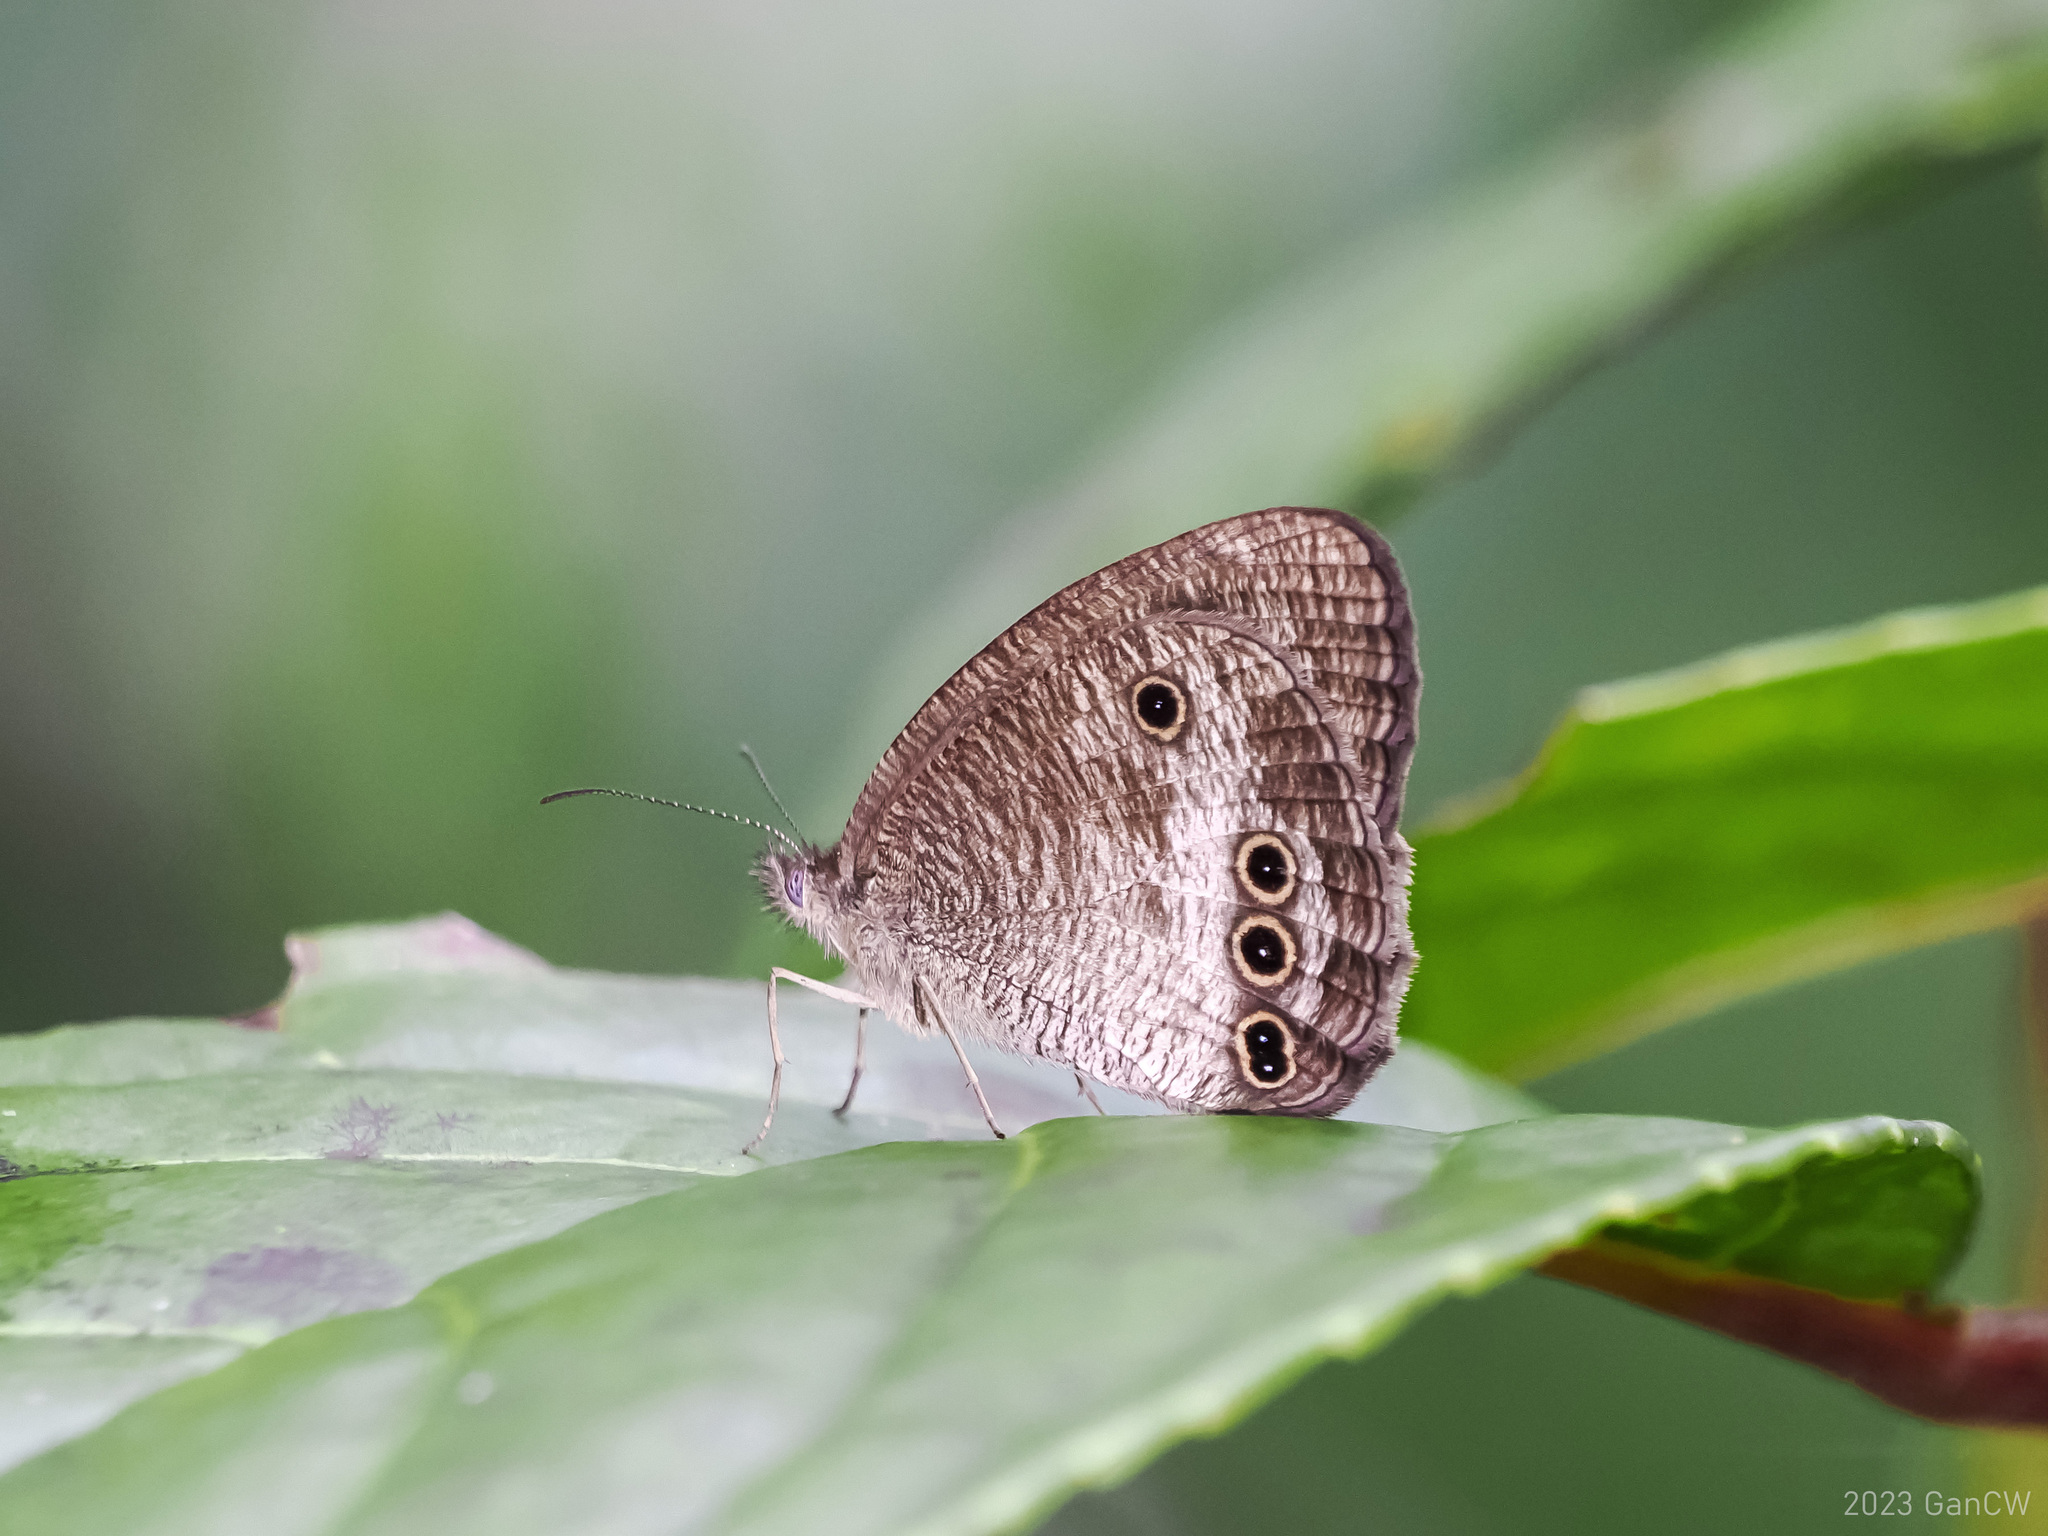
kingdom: Animalia
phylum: Arthropoda
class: Insecta
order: Lepidoptera
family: Nymphalidae
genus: Ypthima
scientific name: Ypthima gawalisi
